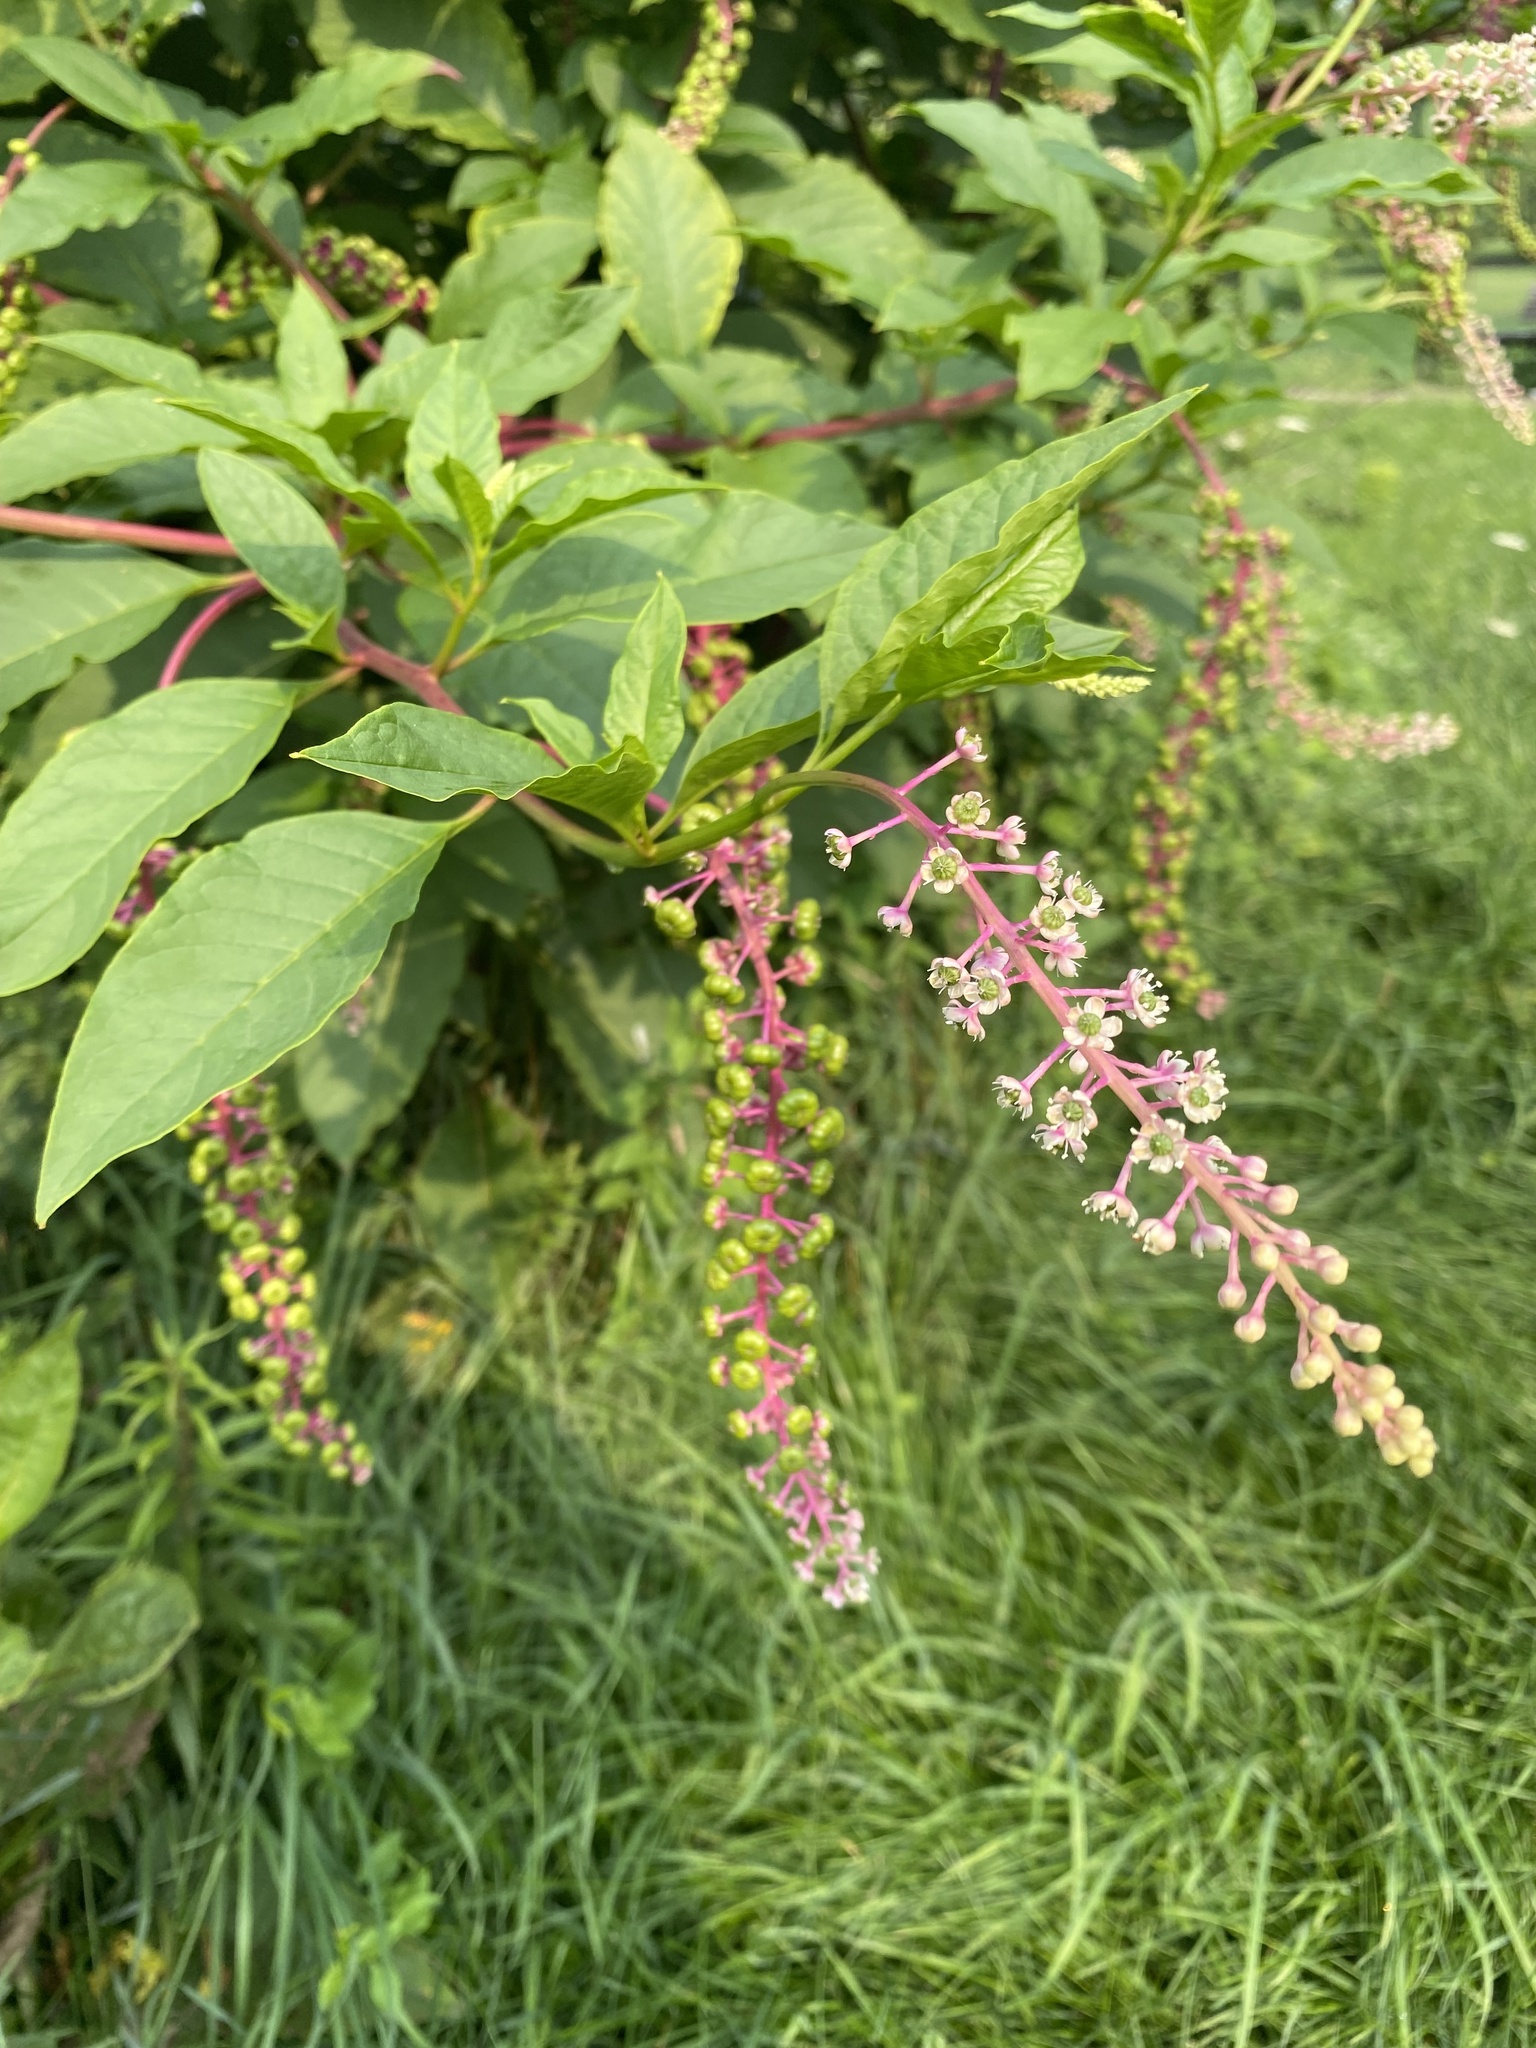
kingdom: Plantae
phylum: Tracheophyta
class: Magnoliopsida
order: Caryophyllales
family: Phytolaccaceae
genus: Phytolacca
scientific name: Phytolacca americana
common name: American pokeweed
